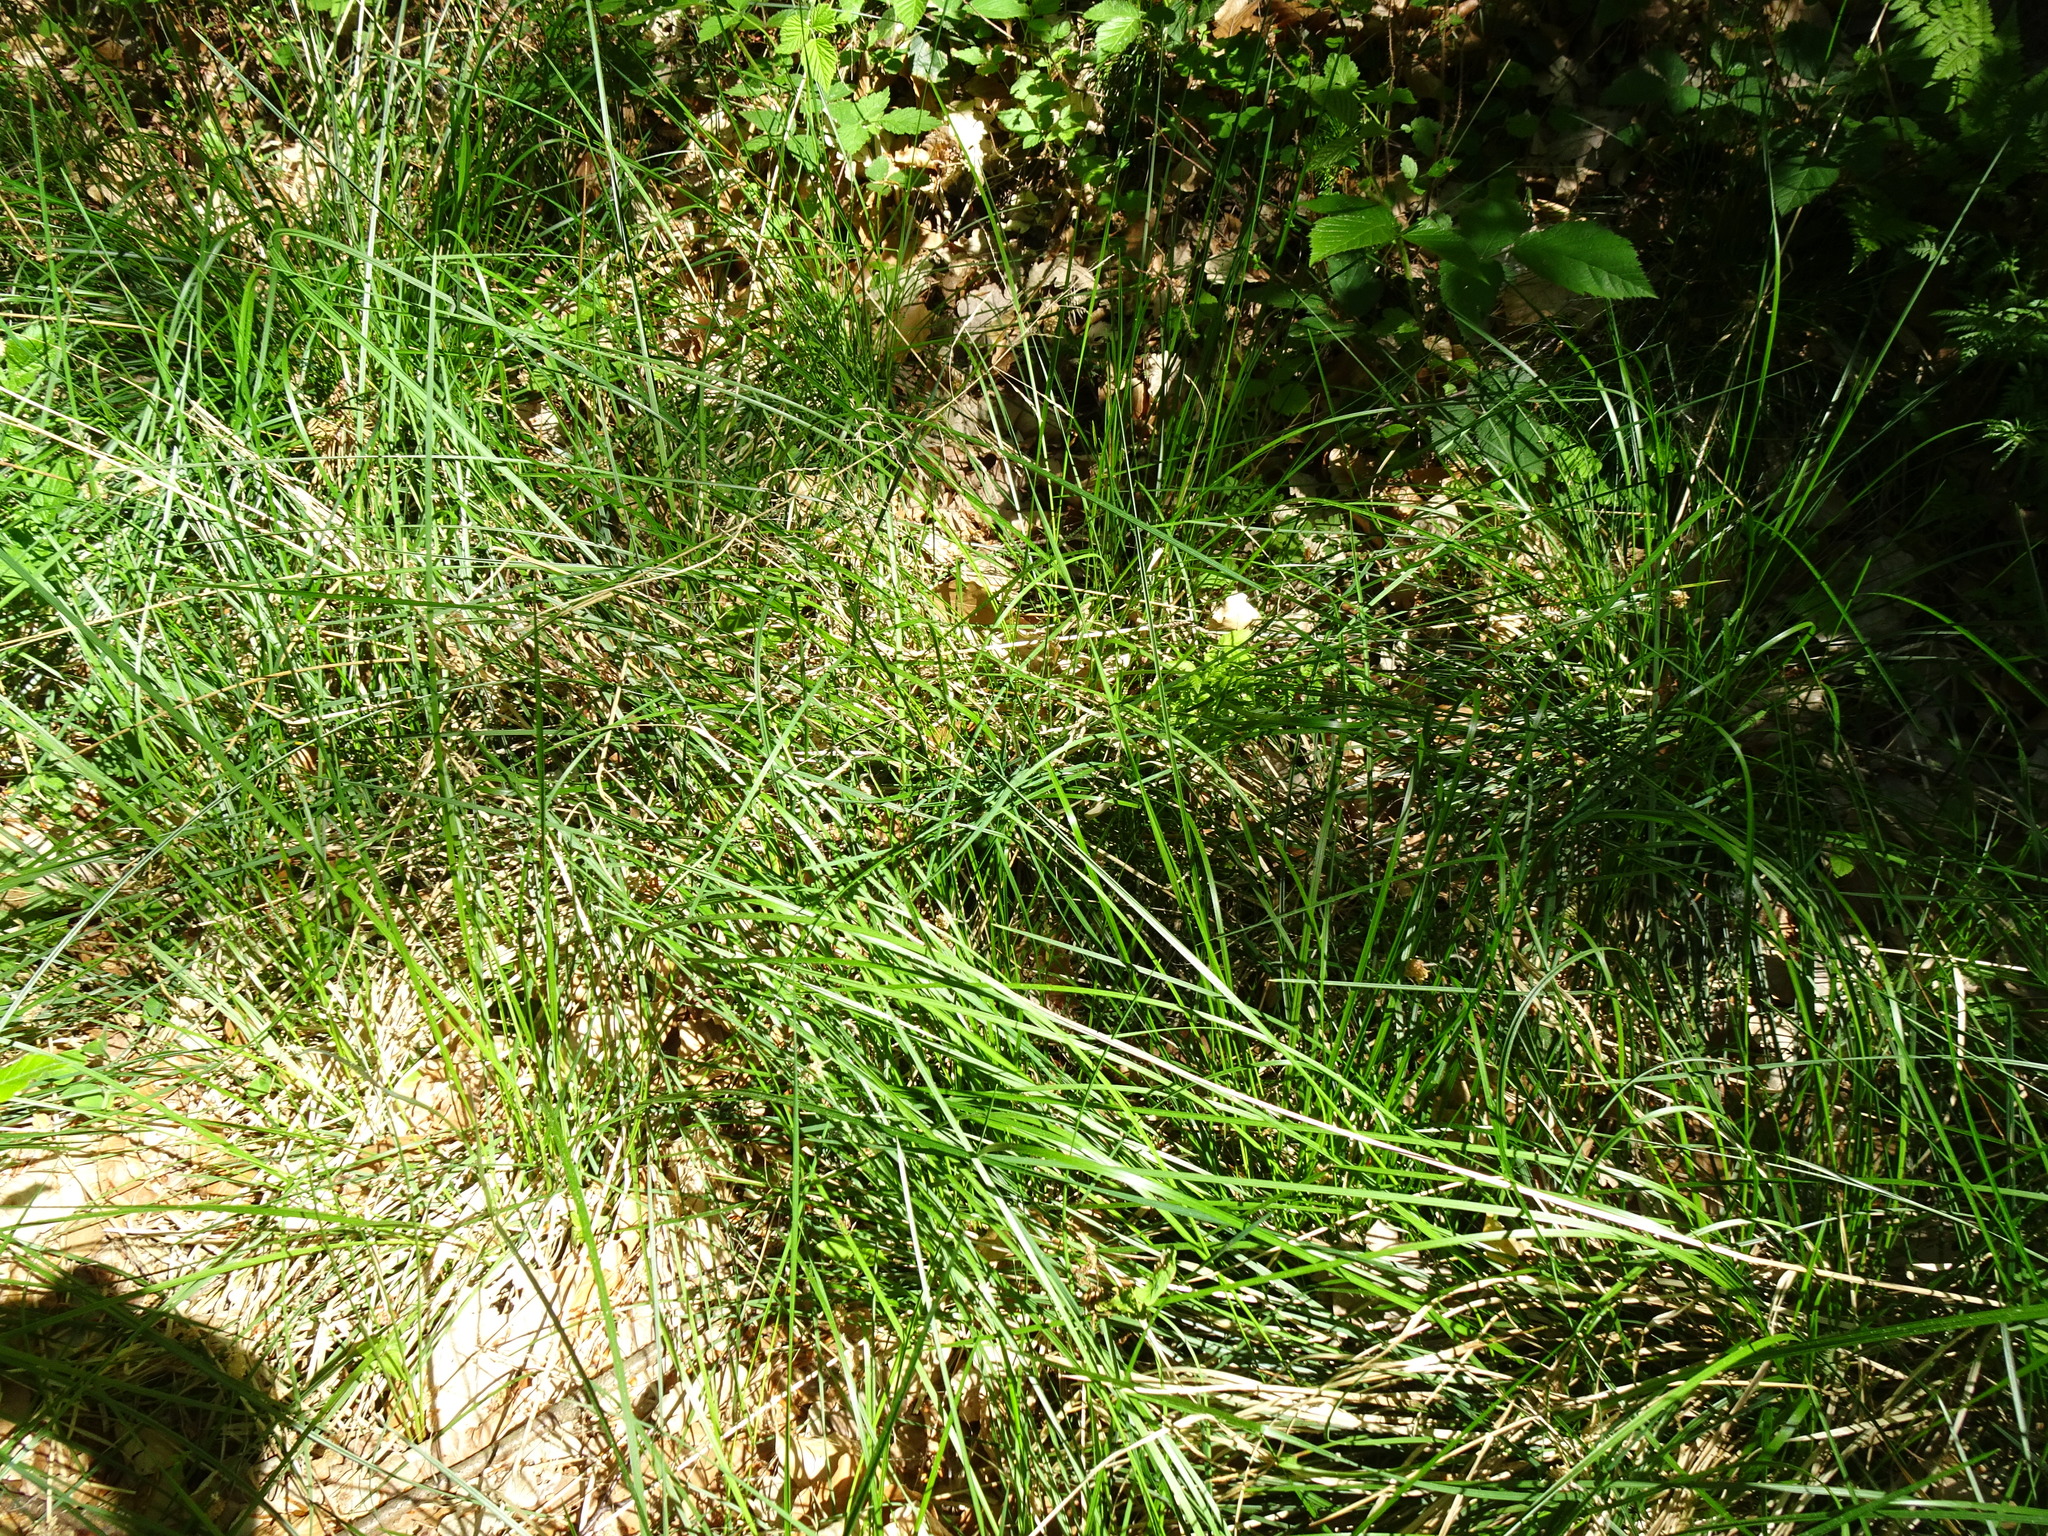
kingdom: Plantae
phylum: Tracheophyta
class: Liliopsida
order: Poales
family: Poaceae
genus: Molinia
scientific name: Molinia caerulea
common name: Purple moor-grass
